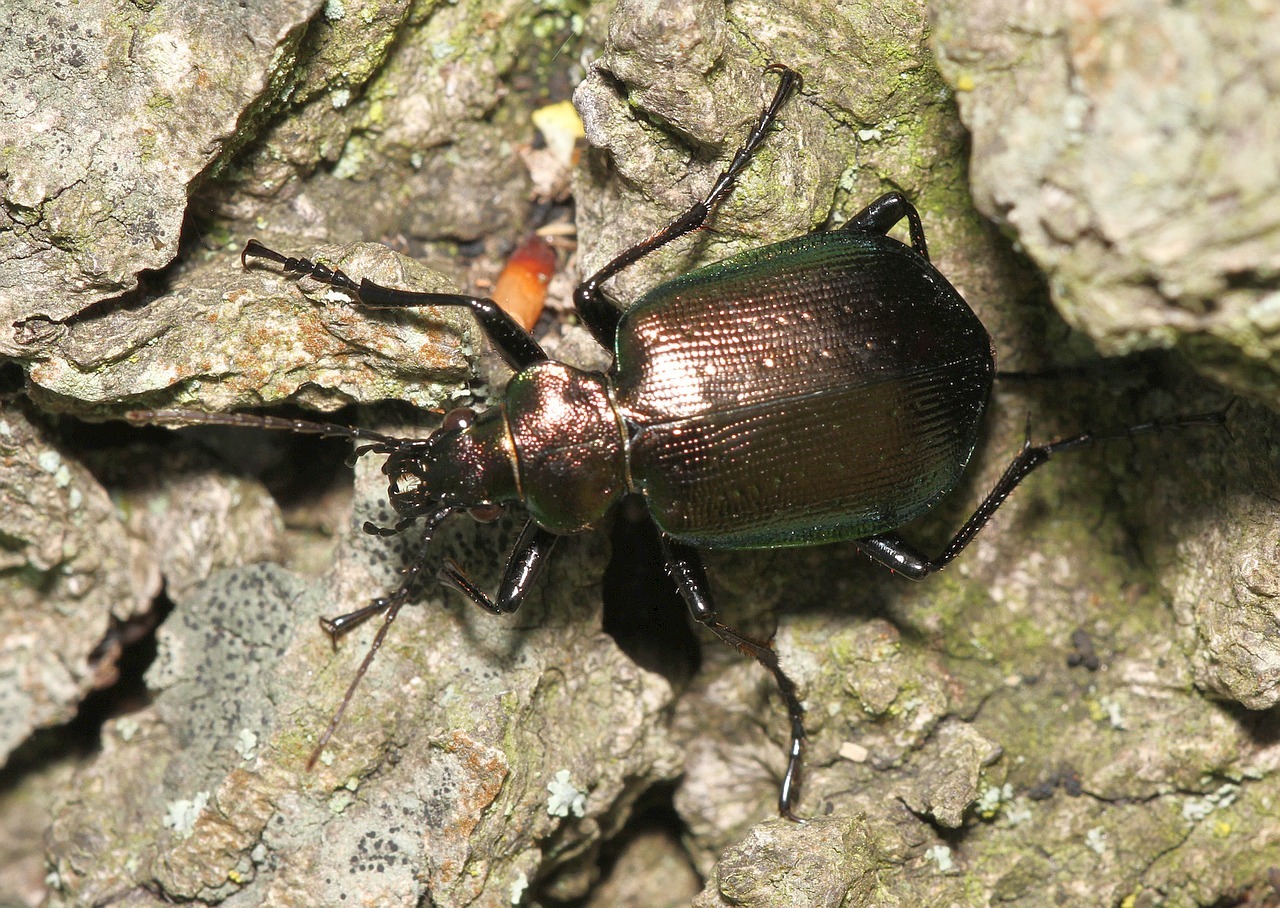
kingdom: Animalia
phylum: Arthropoda
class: Insecta
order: Coleoptera
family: Carabidae
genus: Calosoma
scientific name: Calosoma inquisitor
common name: Caterpillar-hunter
